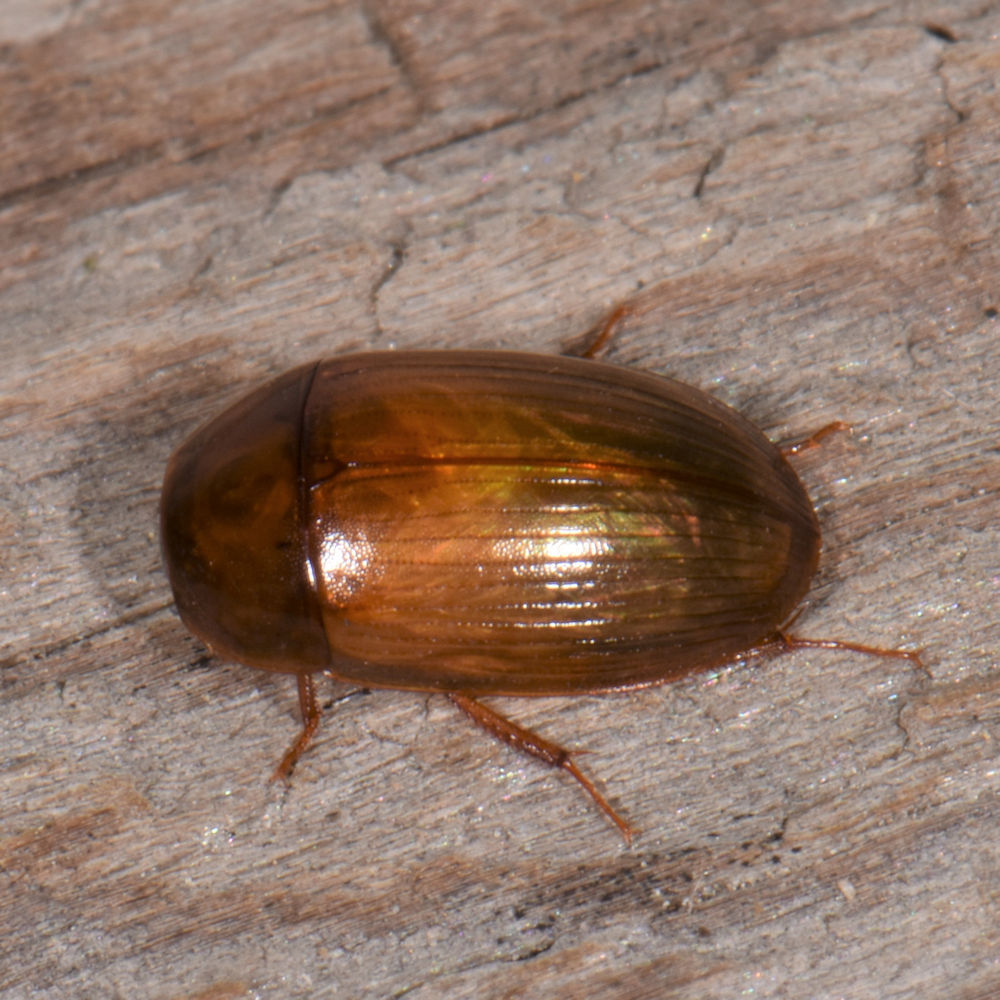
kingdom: Animalia
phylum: Arthropoda
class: Insecta
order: Coleoptera
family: Hydrophilidae
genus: Cymbiodyta
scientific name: Cymbiodyta bifida
